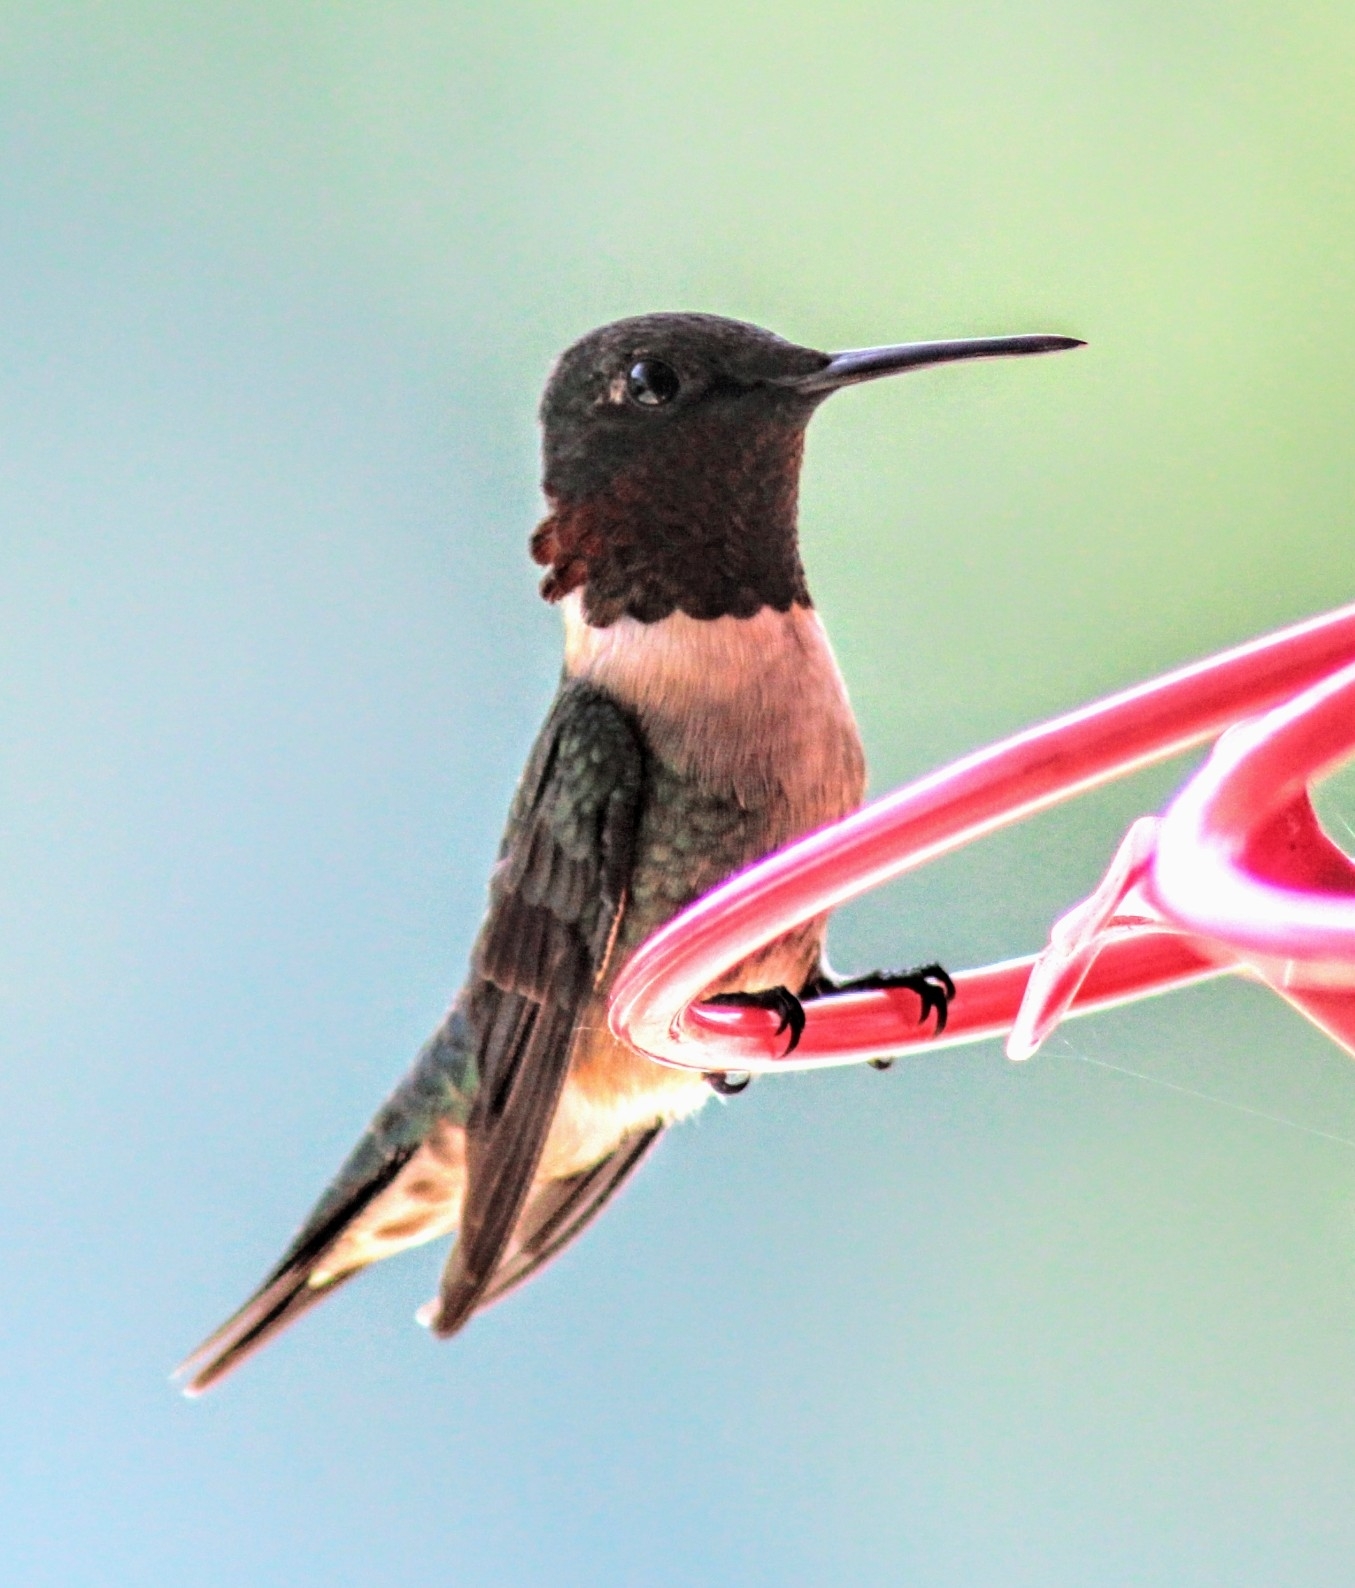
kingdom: Animalia
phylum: Chordata
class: Aves
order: Apodiformes
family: Trochilidae
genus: Archilochus
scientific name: Archilochus colubris
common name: Ruby-throated hummingbird
